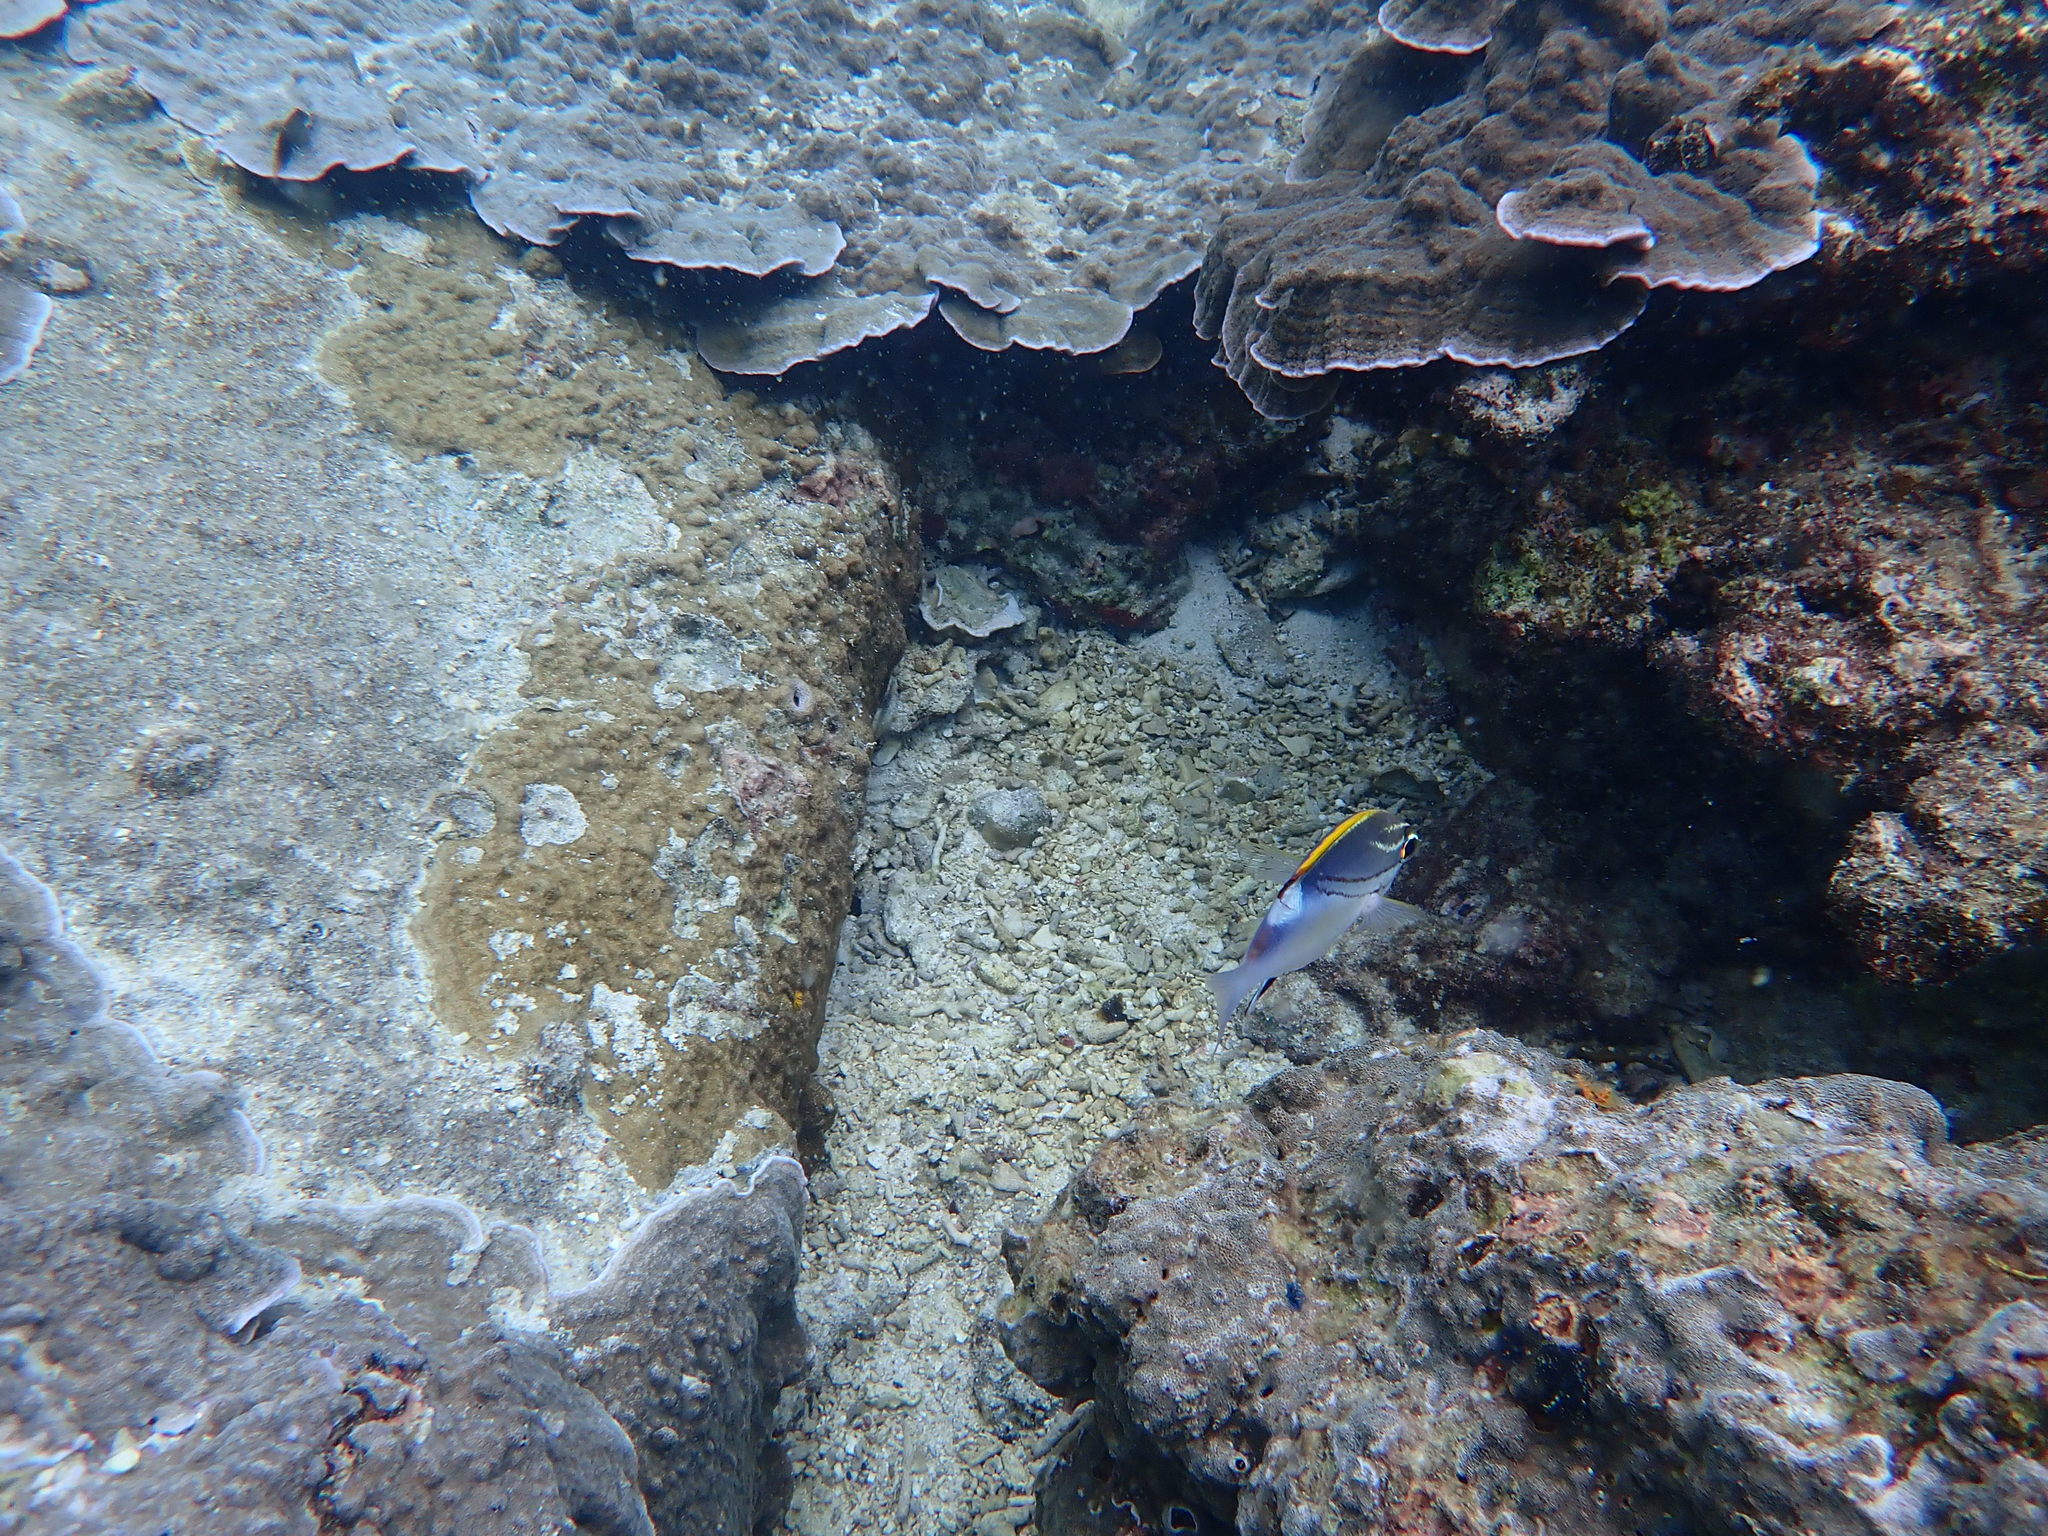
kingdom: Animalia
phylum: Chordata
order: Perciformes
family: Nemipteridae
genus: Scolopsis
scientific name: Scolopsis bilineata
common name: Two-lined monocle bream
